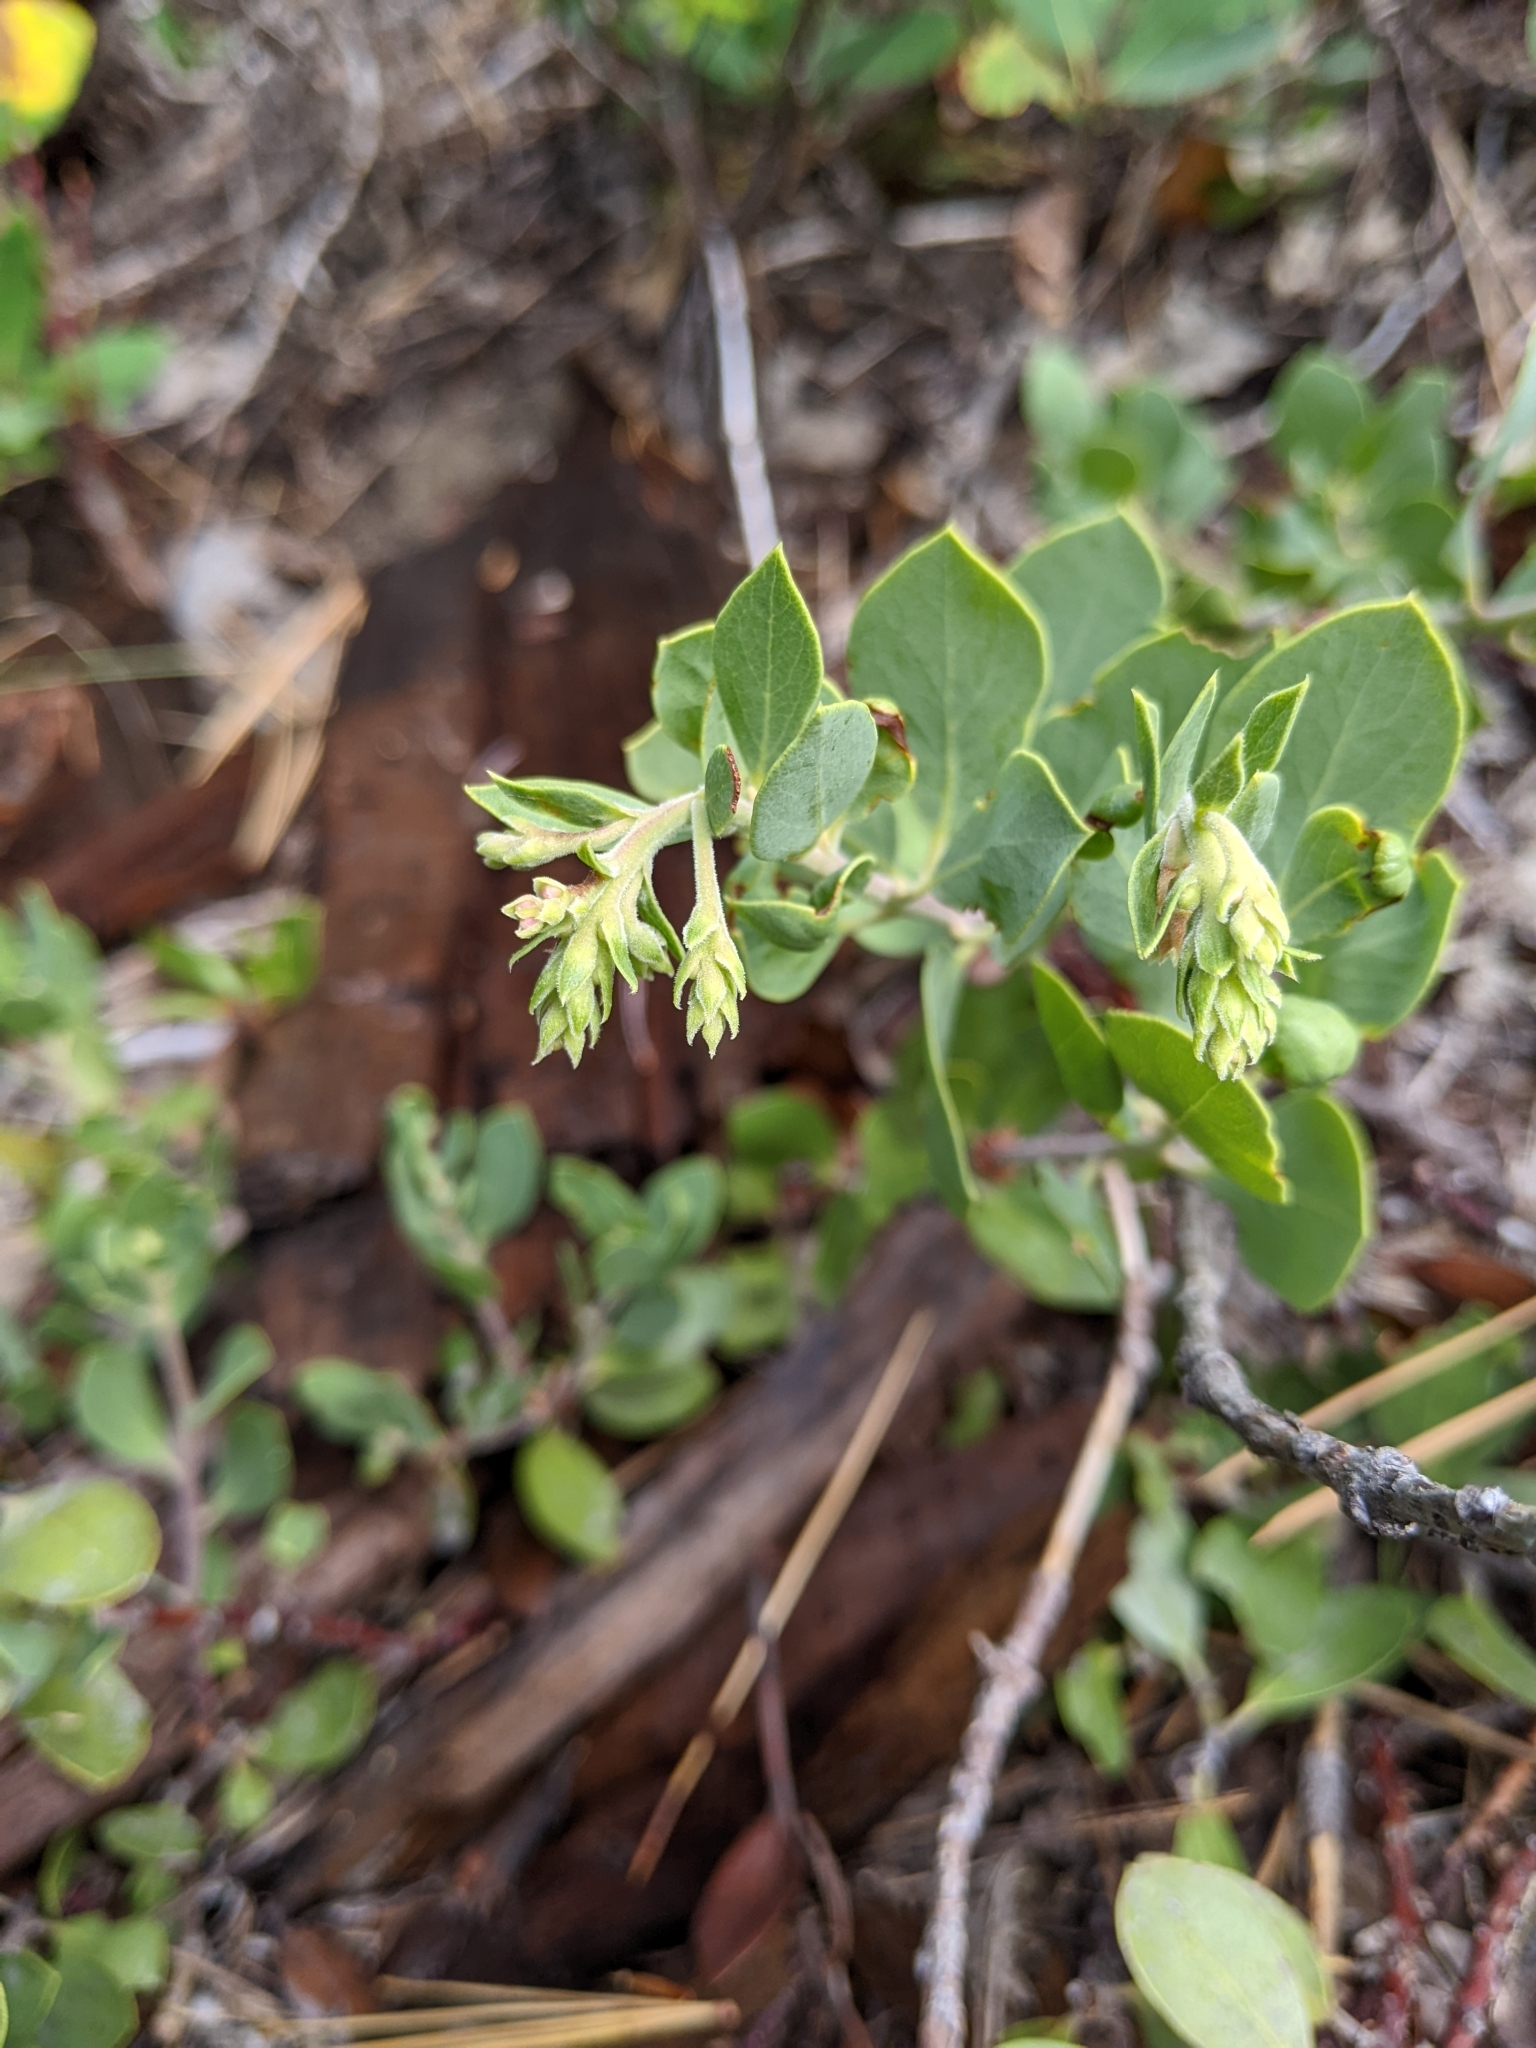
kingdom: Plantae
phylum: Tracheophyta
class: Magnoliopsida
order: Ericales
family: Ericaceae
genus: Arctostaphylos
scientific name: Arctostaphylos nevadensis
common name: Pinemat manzanita
